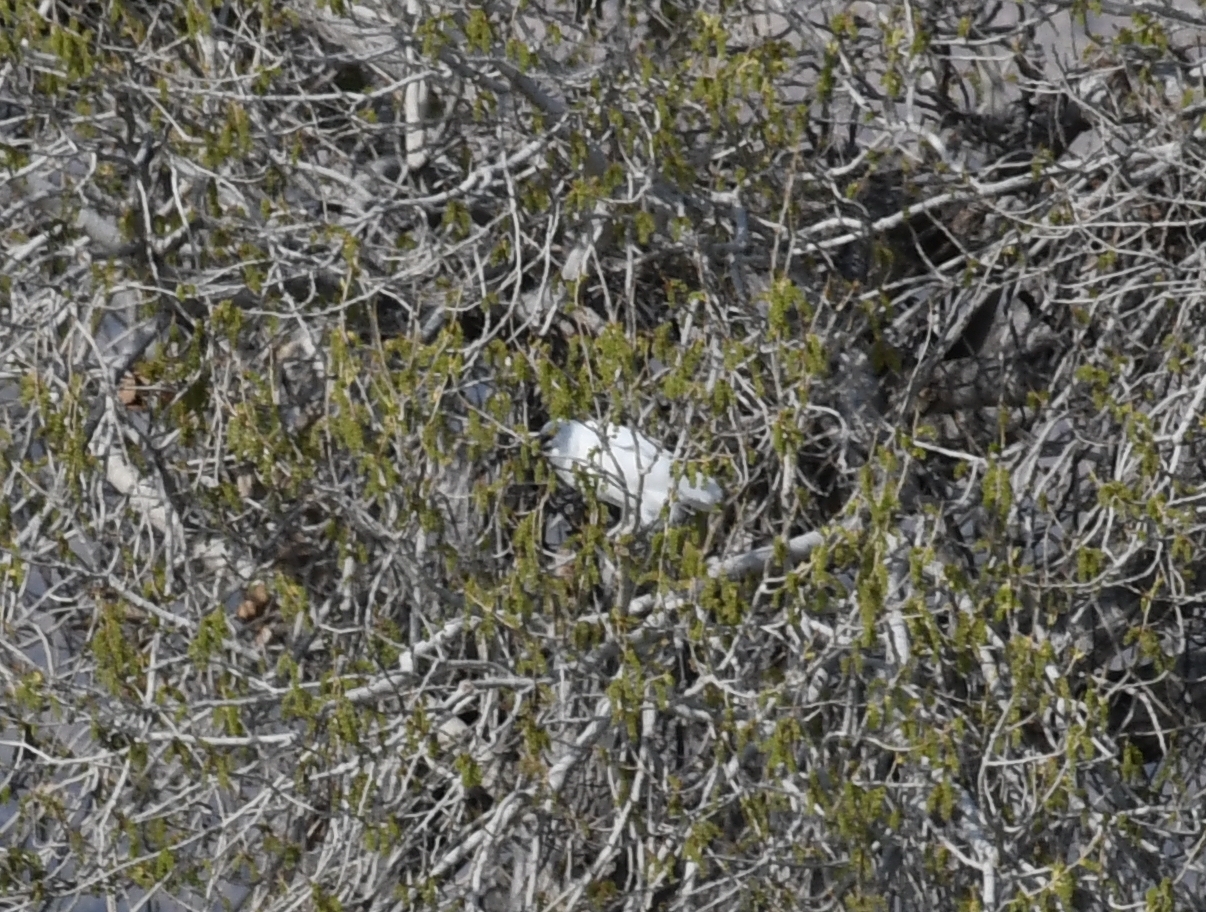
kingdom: Animalia
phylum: Chordata
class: Aves
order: Pelecaniformes
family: Ardeidae
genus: Egretta
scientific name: Egretta thula
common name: Snowy egret
